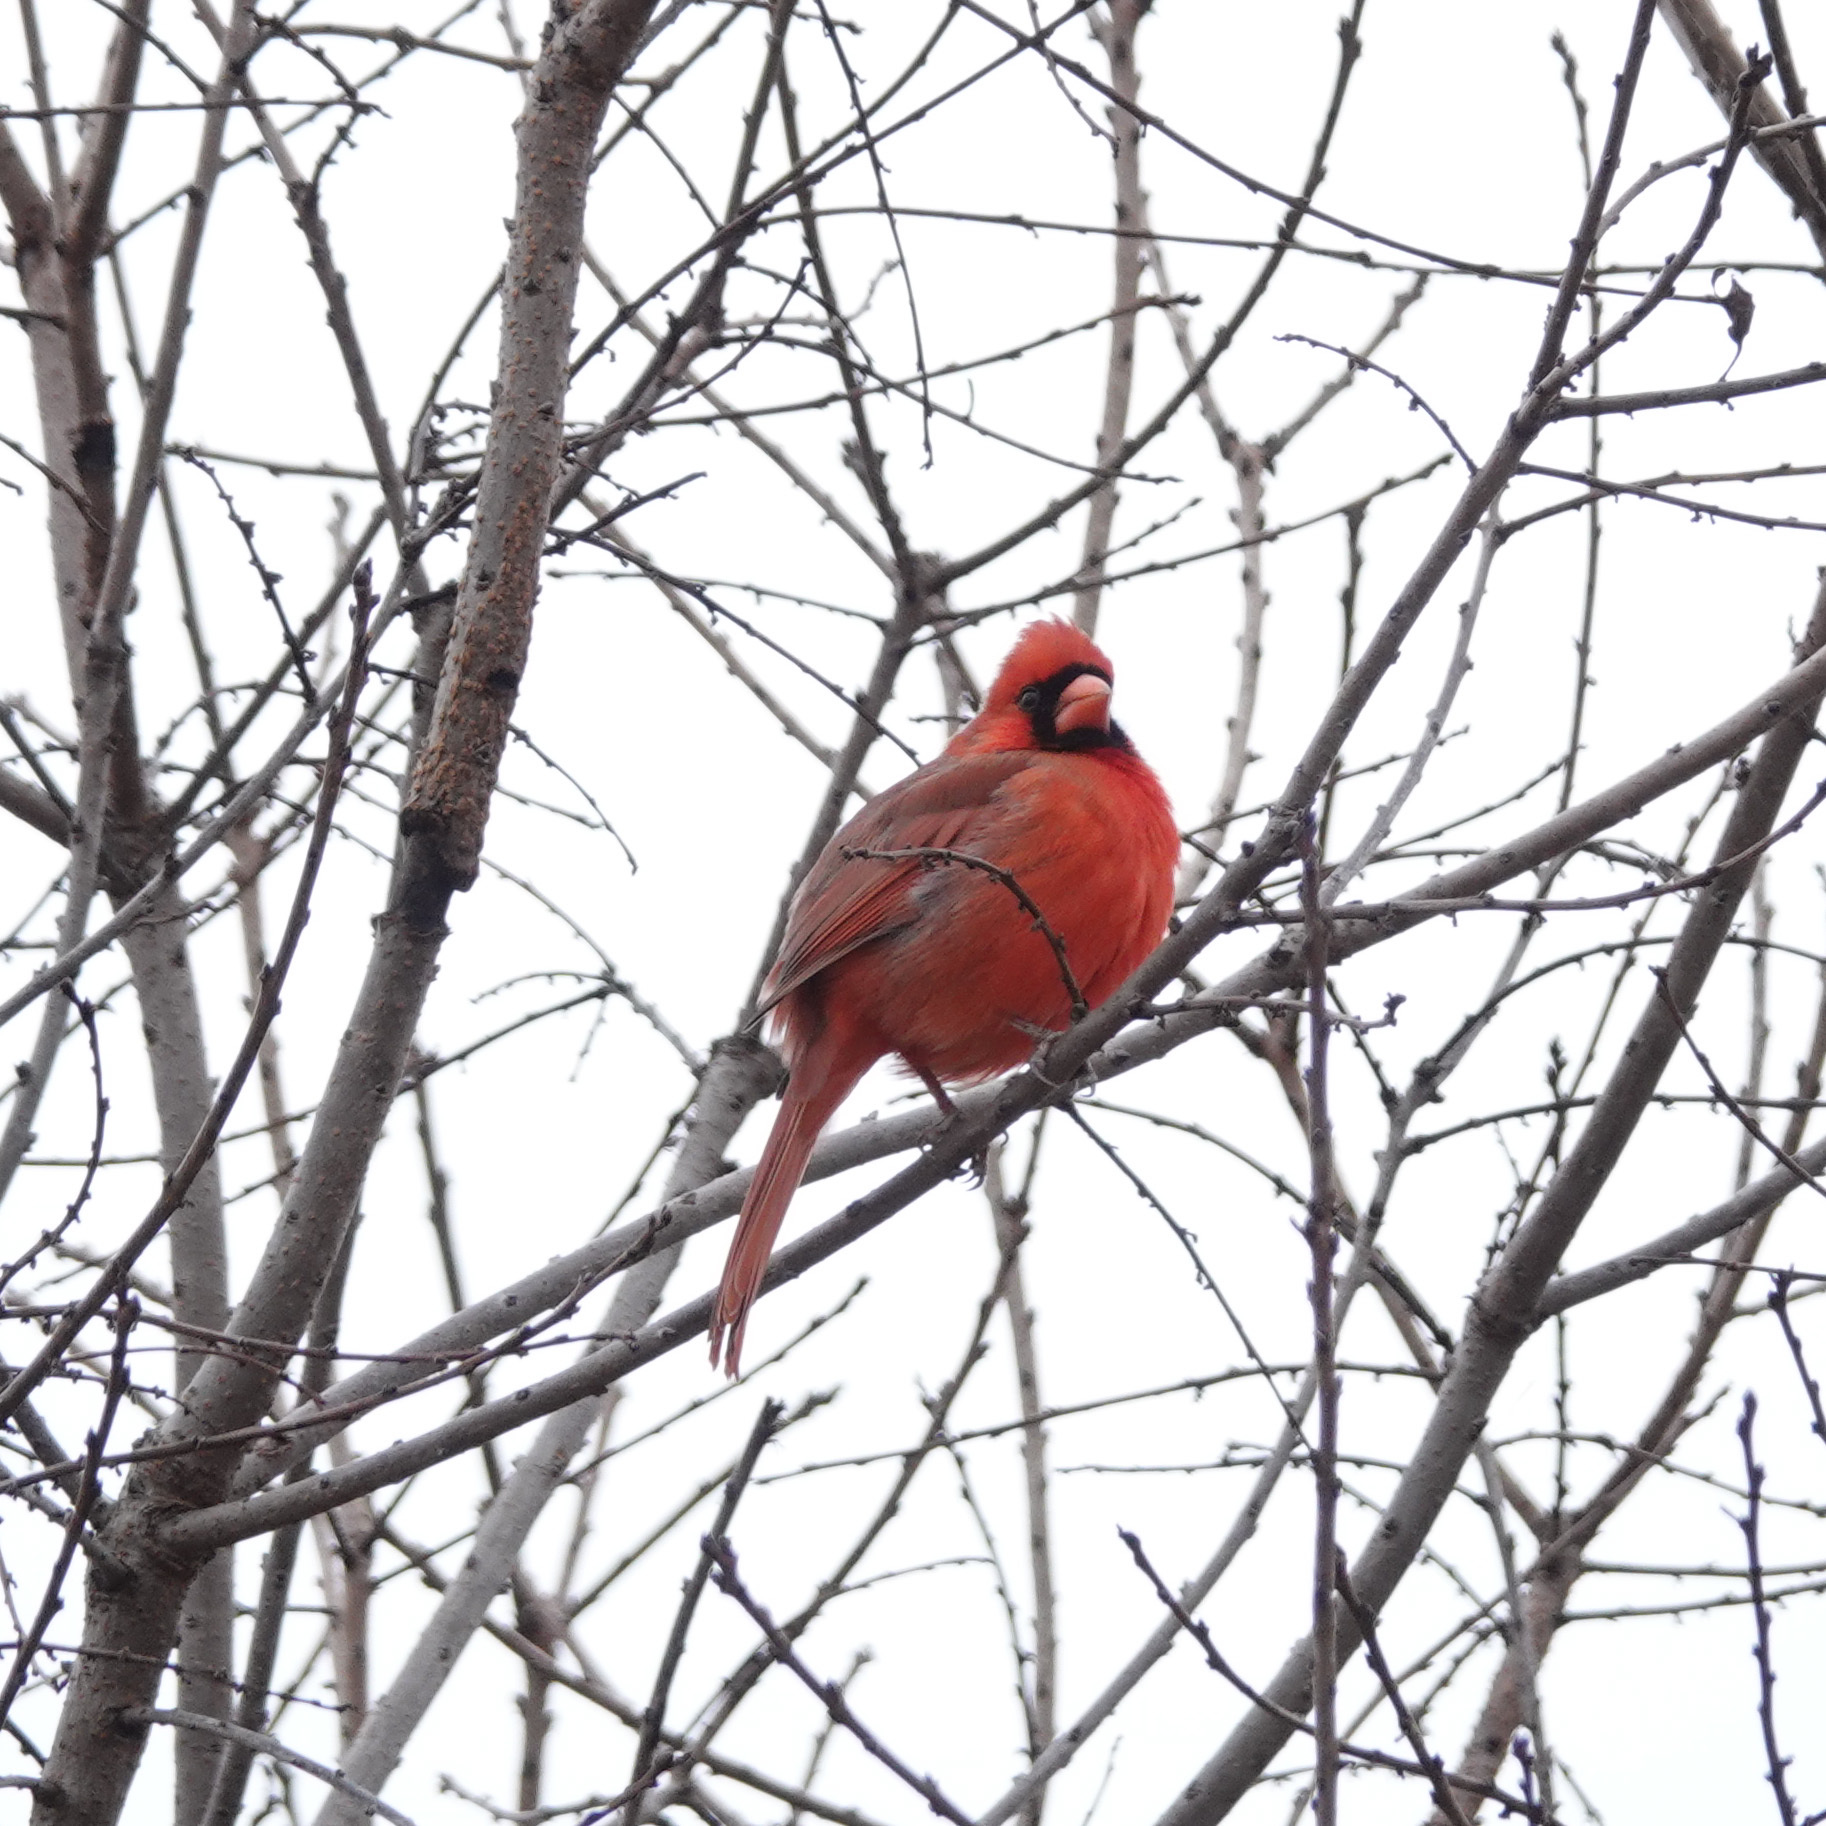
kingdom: Animalia
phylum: Chordata
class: Aves
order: Passeriformes
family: Cardinalidae
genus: Cardinalis
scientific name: Cardinalis cardinalis
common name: Northern cardinal
